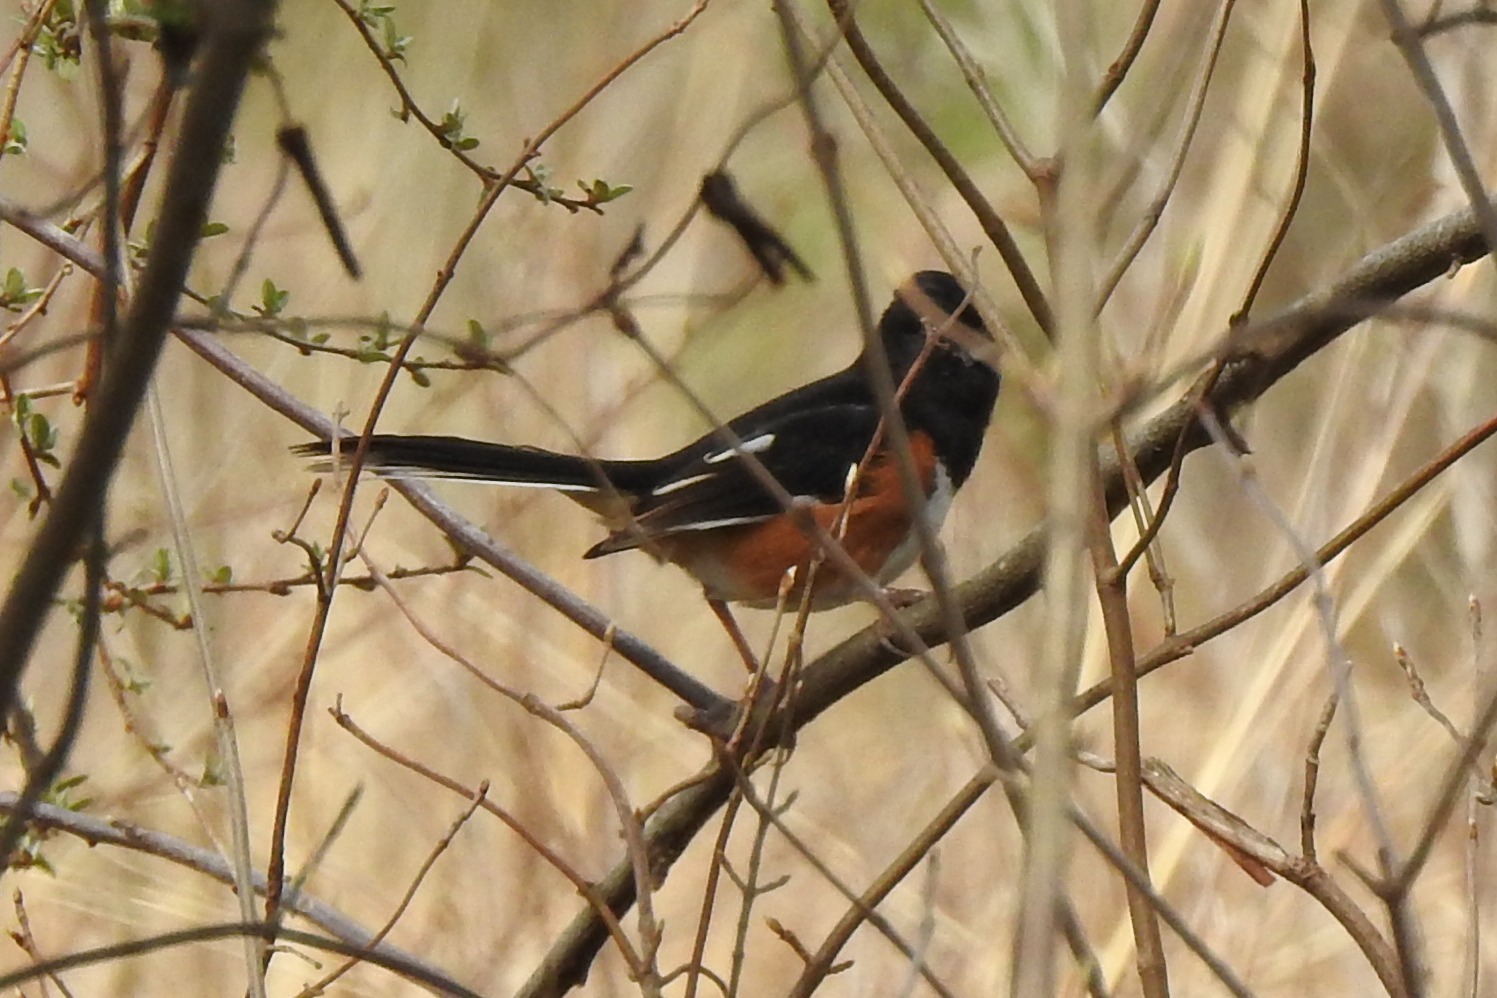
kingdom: Animalia
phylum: Chordata
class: Aves
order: Passeriformes
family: Passerellidae
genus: Pipilo
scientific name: Pipilo erythrophthalmus
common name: Eastern towhee
